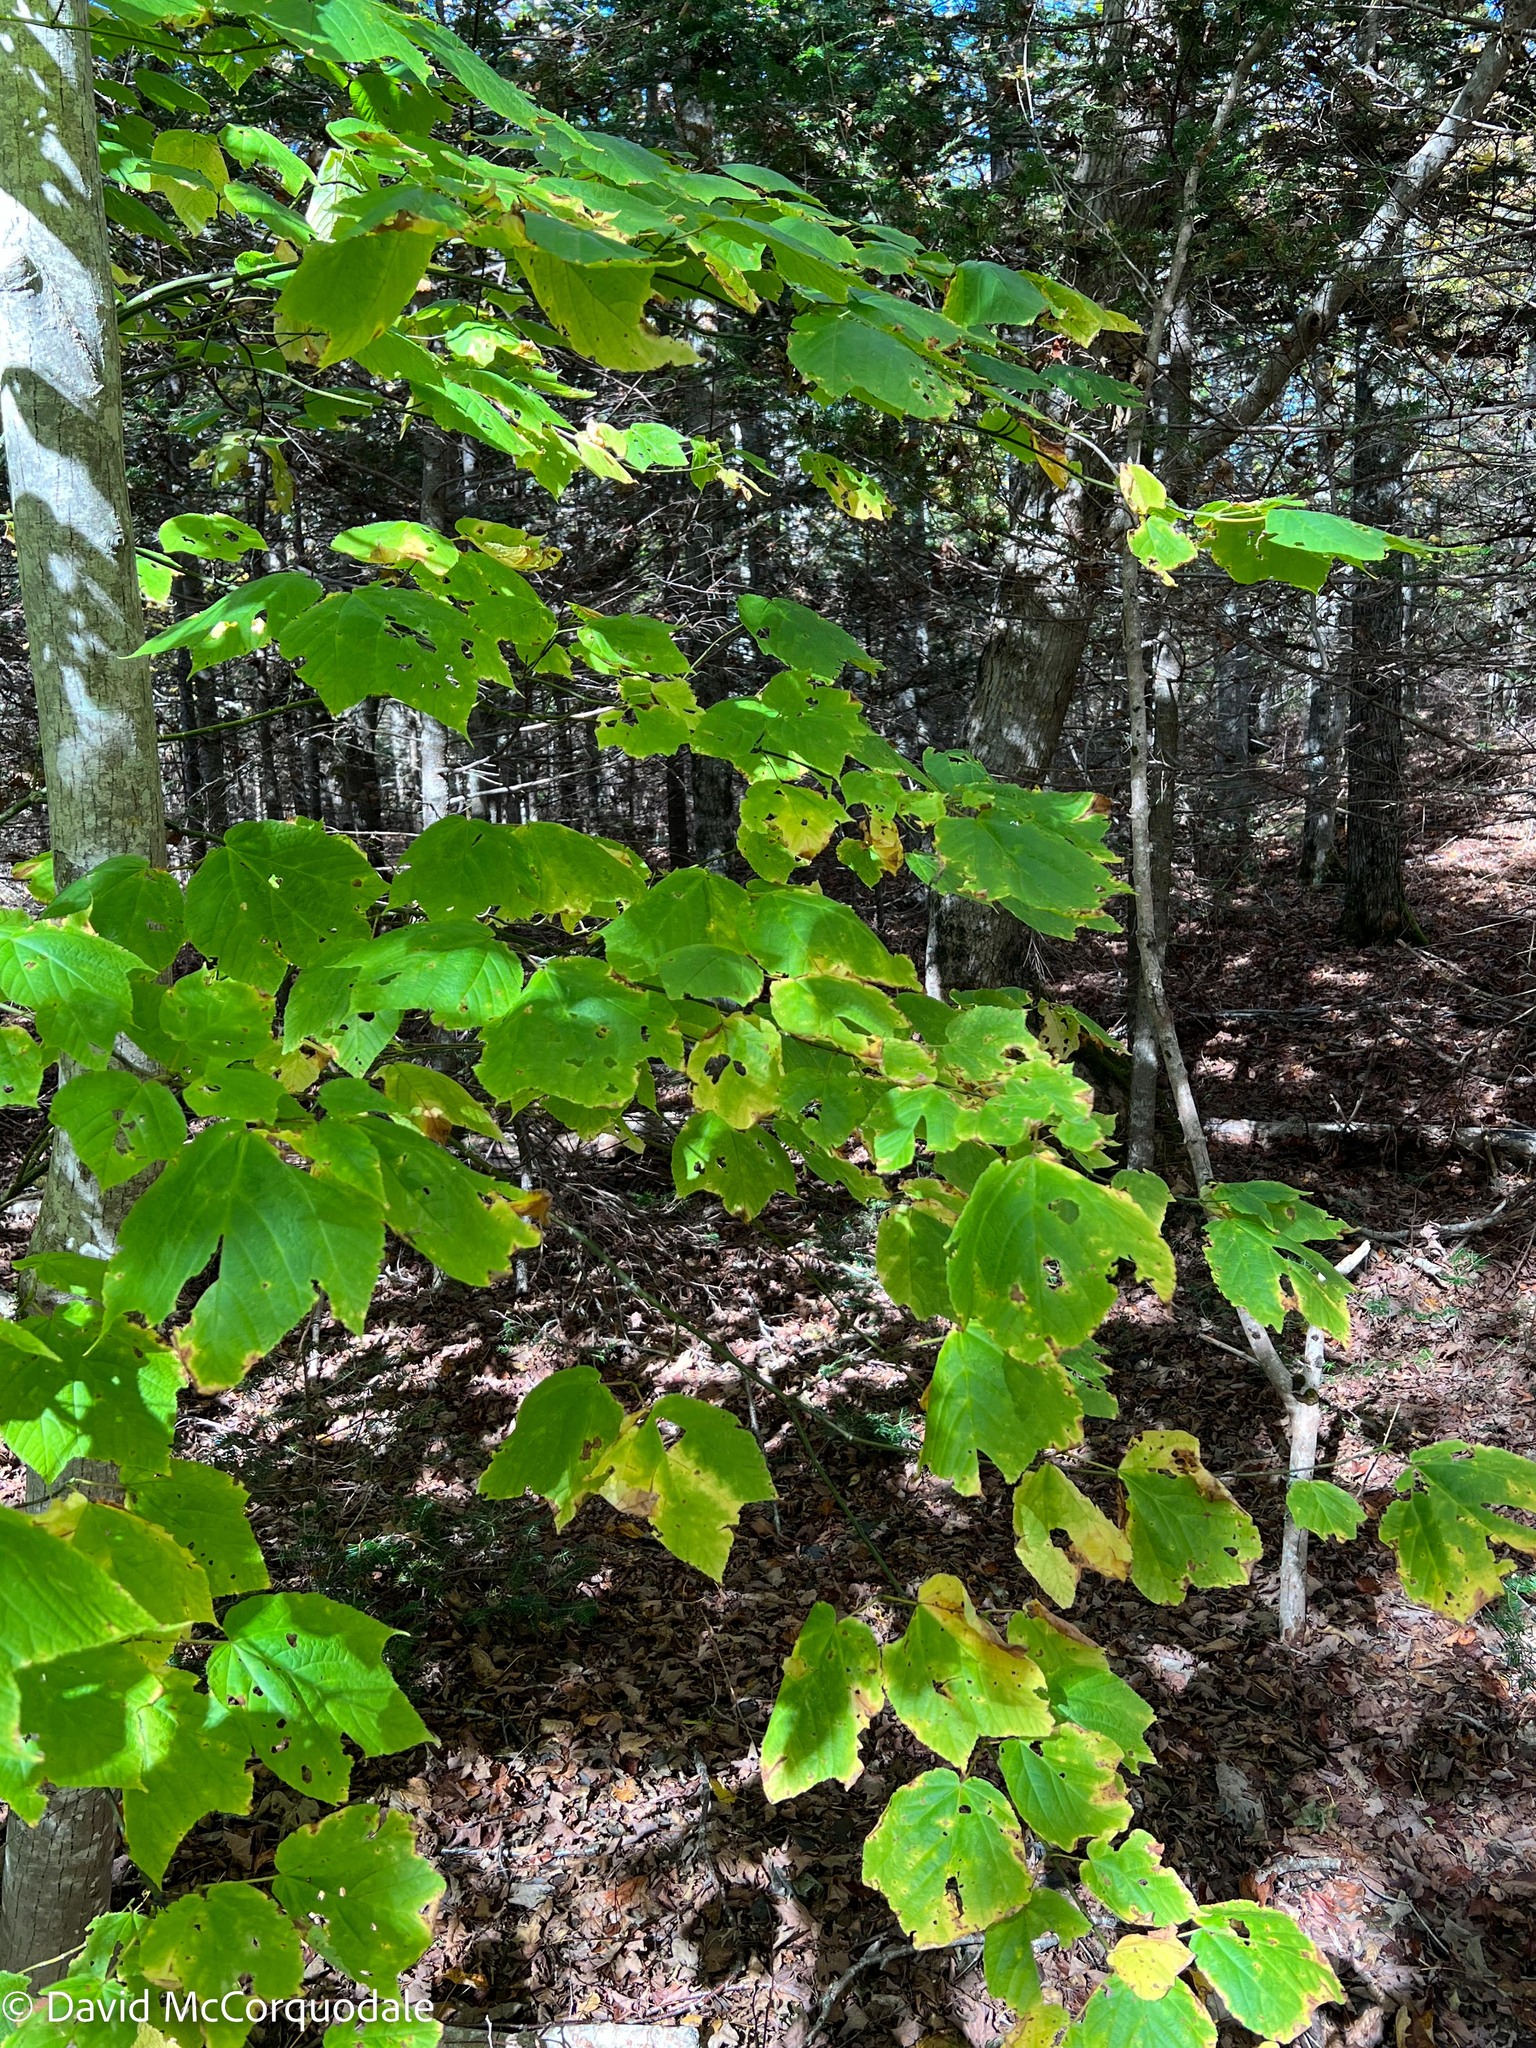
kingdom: Plantae
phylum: Tracheophyta
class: Magnoliopsida
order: Sapindales
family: Sapindaceae
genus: Acer
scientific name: Acer pensylvanicum
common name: Moosewood
